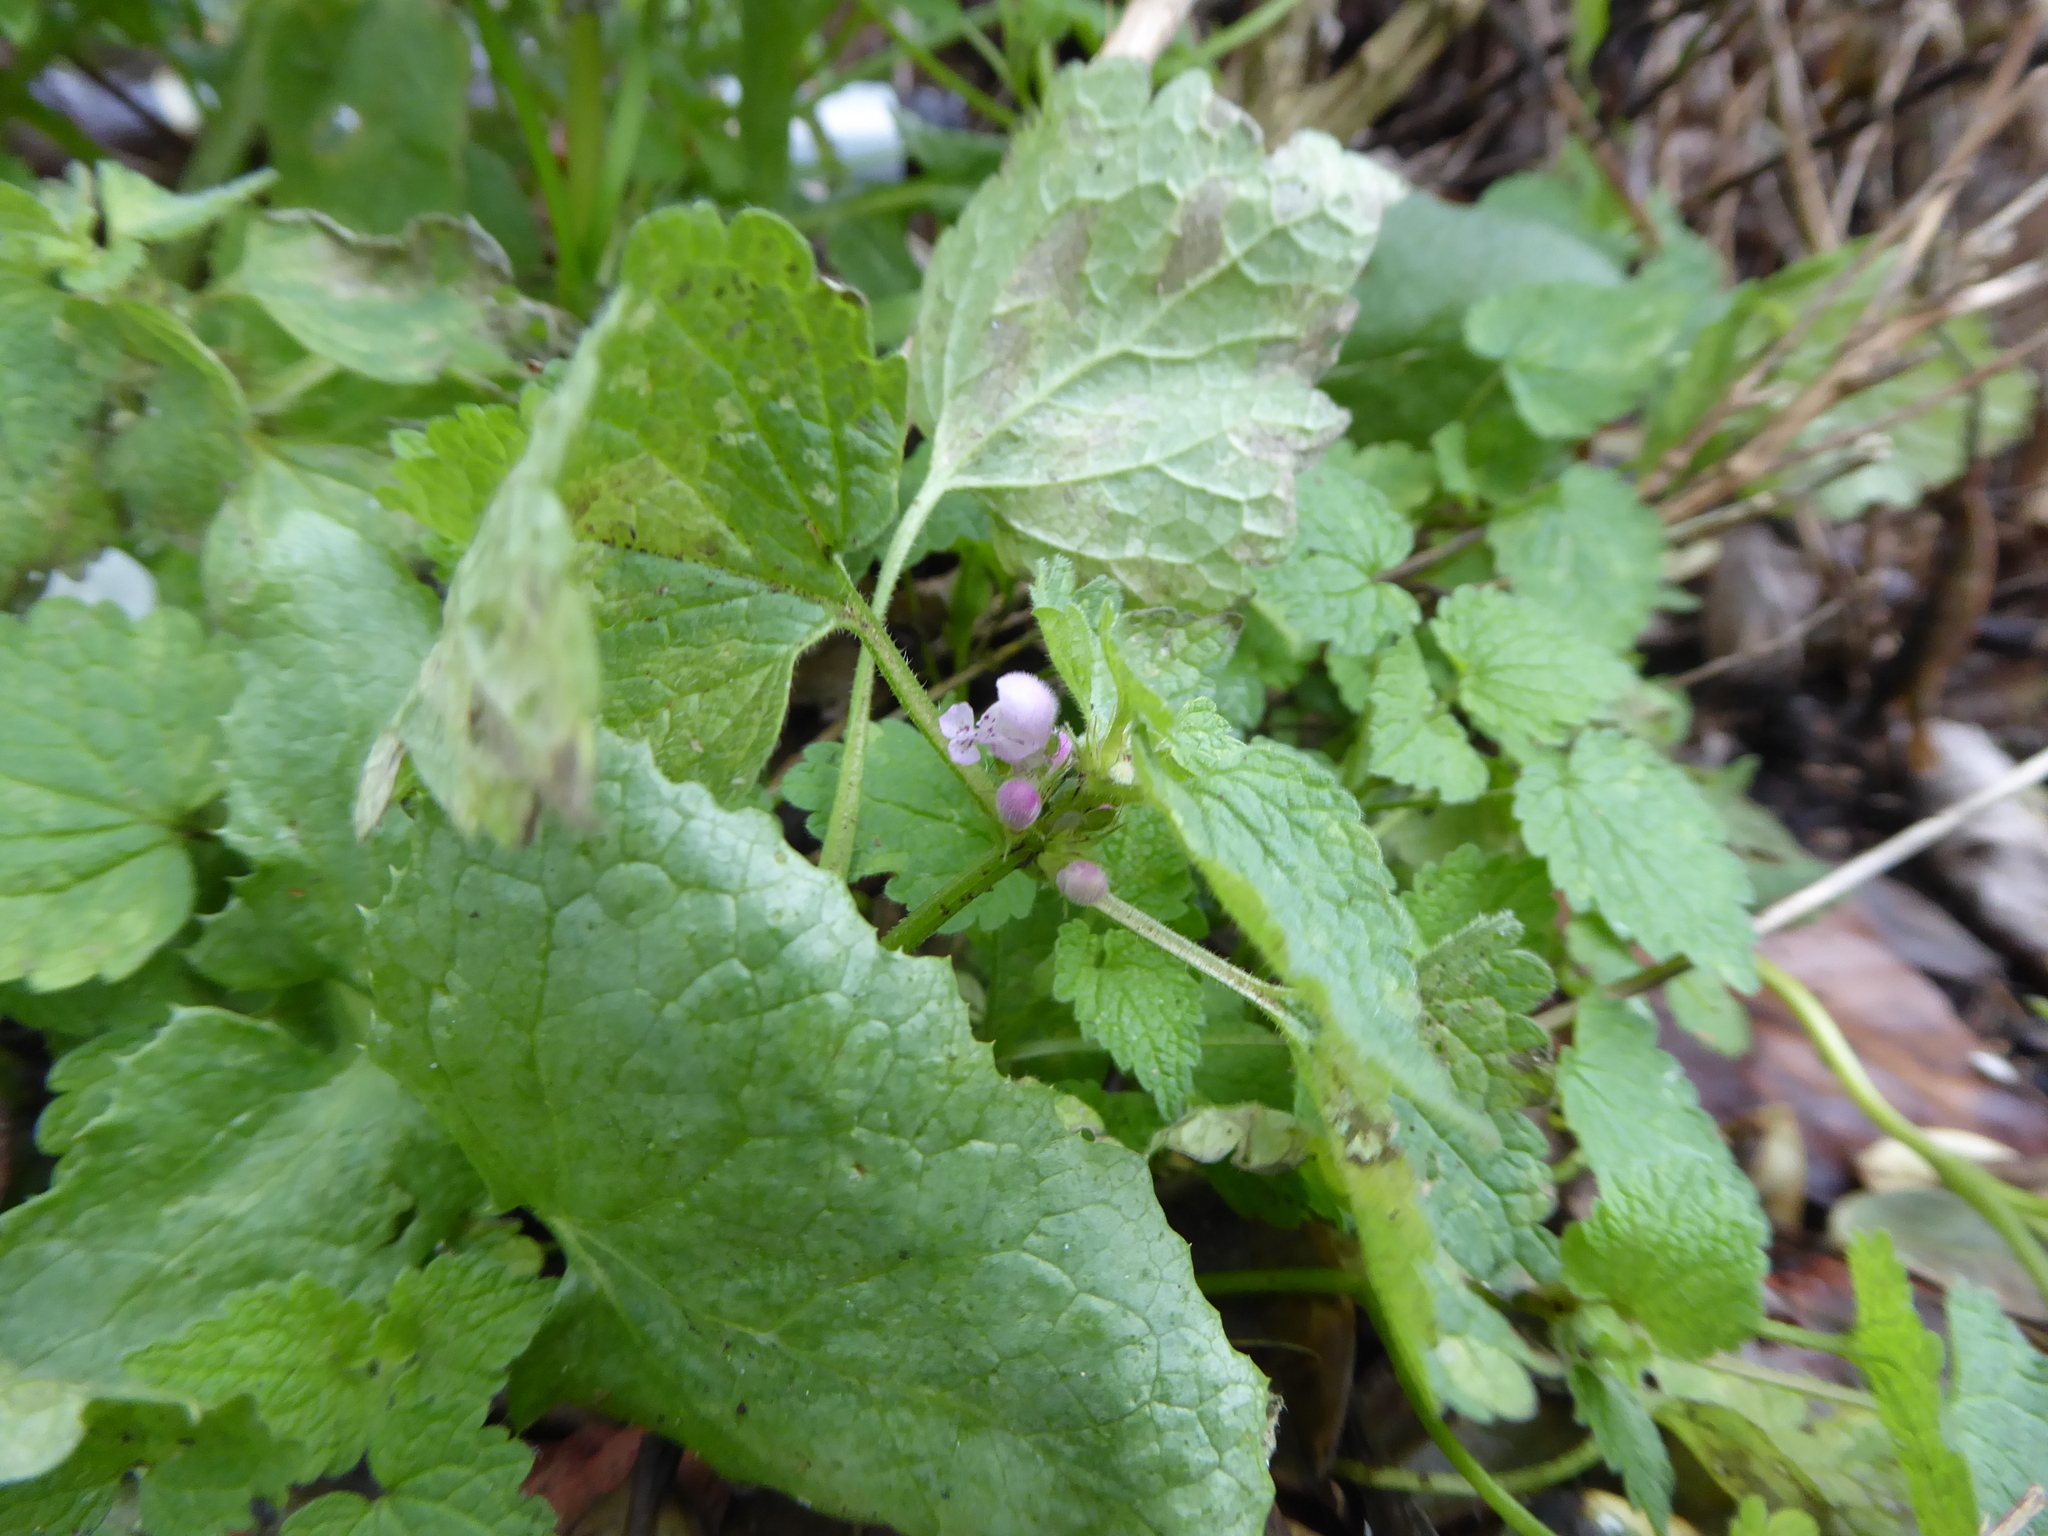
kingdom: Plantae
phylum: Tracheophyta
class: Magnoliopsida
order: Lamiales
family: Lamiaceae
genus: Lamium
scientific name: Lamium purpureum
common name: Red dead-nettle
